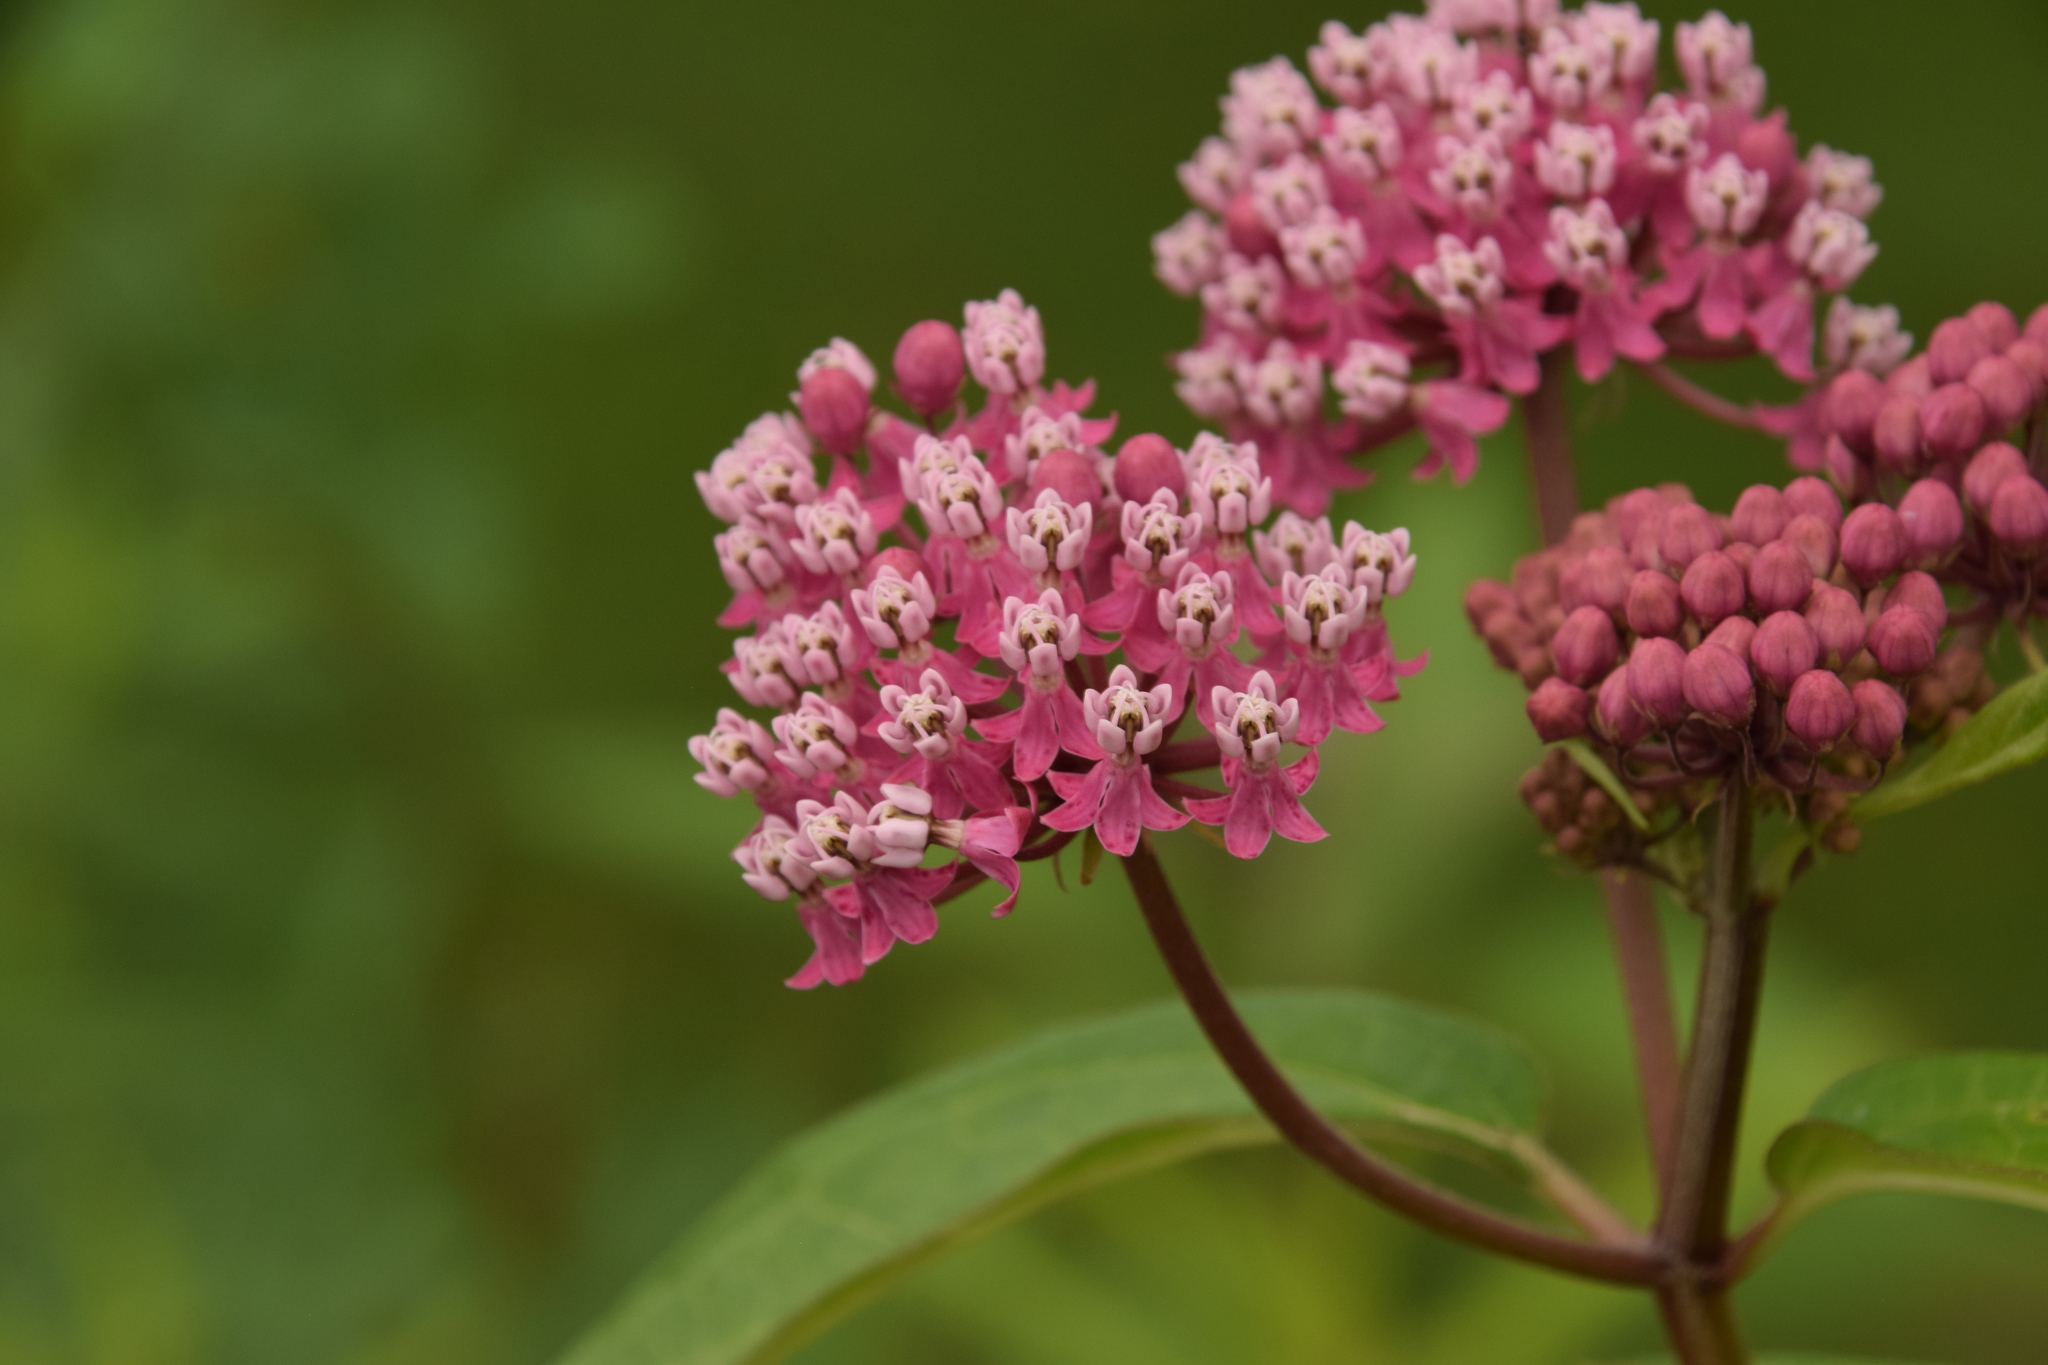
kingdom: Plantae
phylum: Tracheophyta
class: Magnoliopsida
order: Gentianales
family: Apocynaceae
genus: Asclepias
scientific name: Asclepias incarnata
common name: Swamp milkweed
